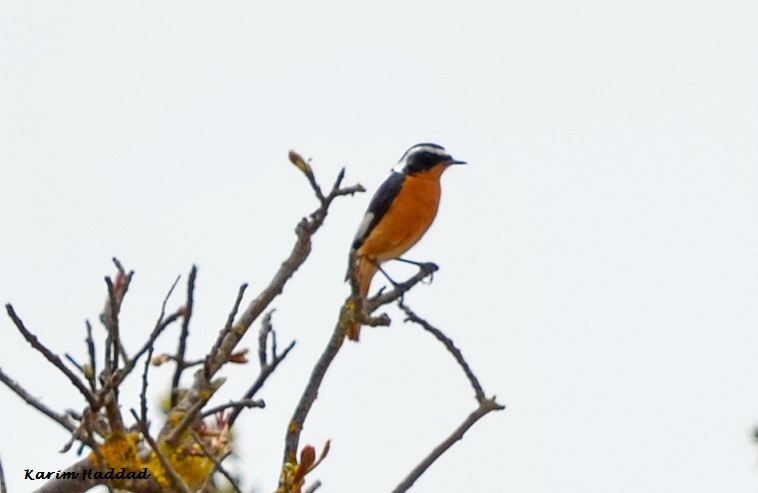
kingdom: Animalia
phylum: Chordata
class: Aves
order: Passeriformes
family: Muscicapidae
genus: Phoenicurus
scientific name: Phoenicurus moussieri
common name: Moussier's redstart
